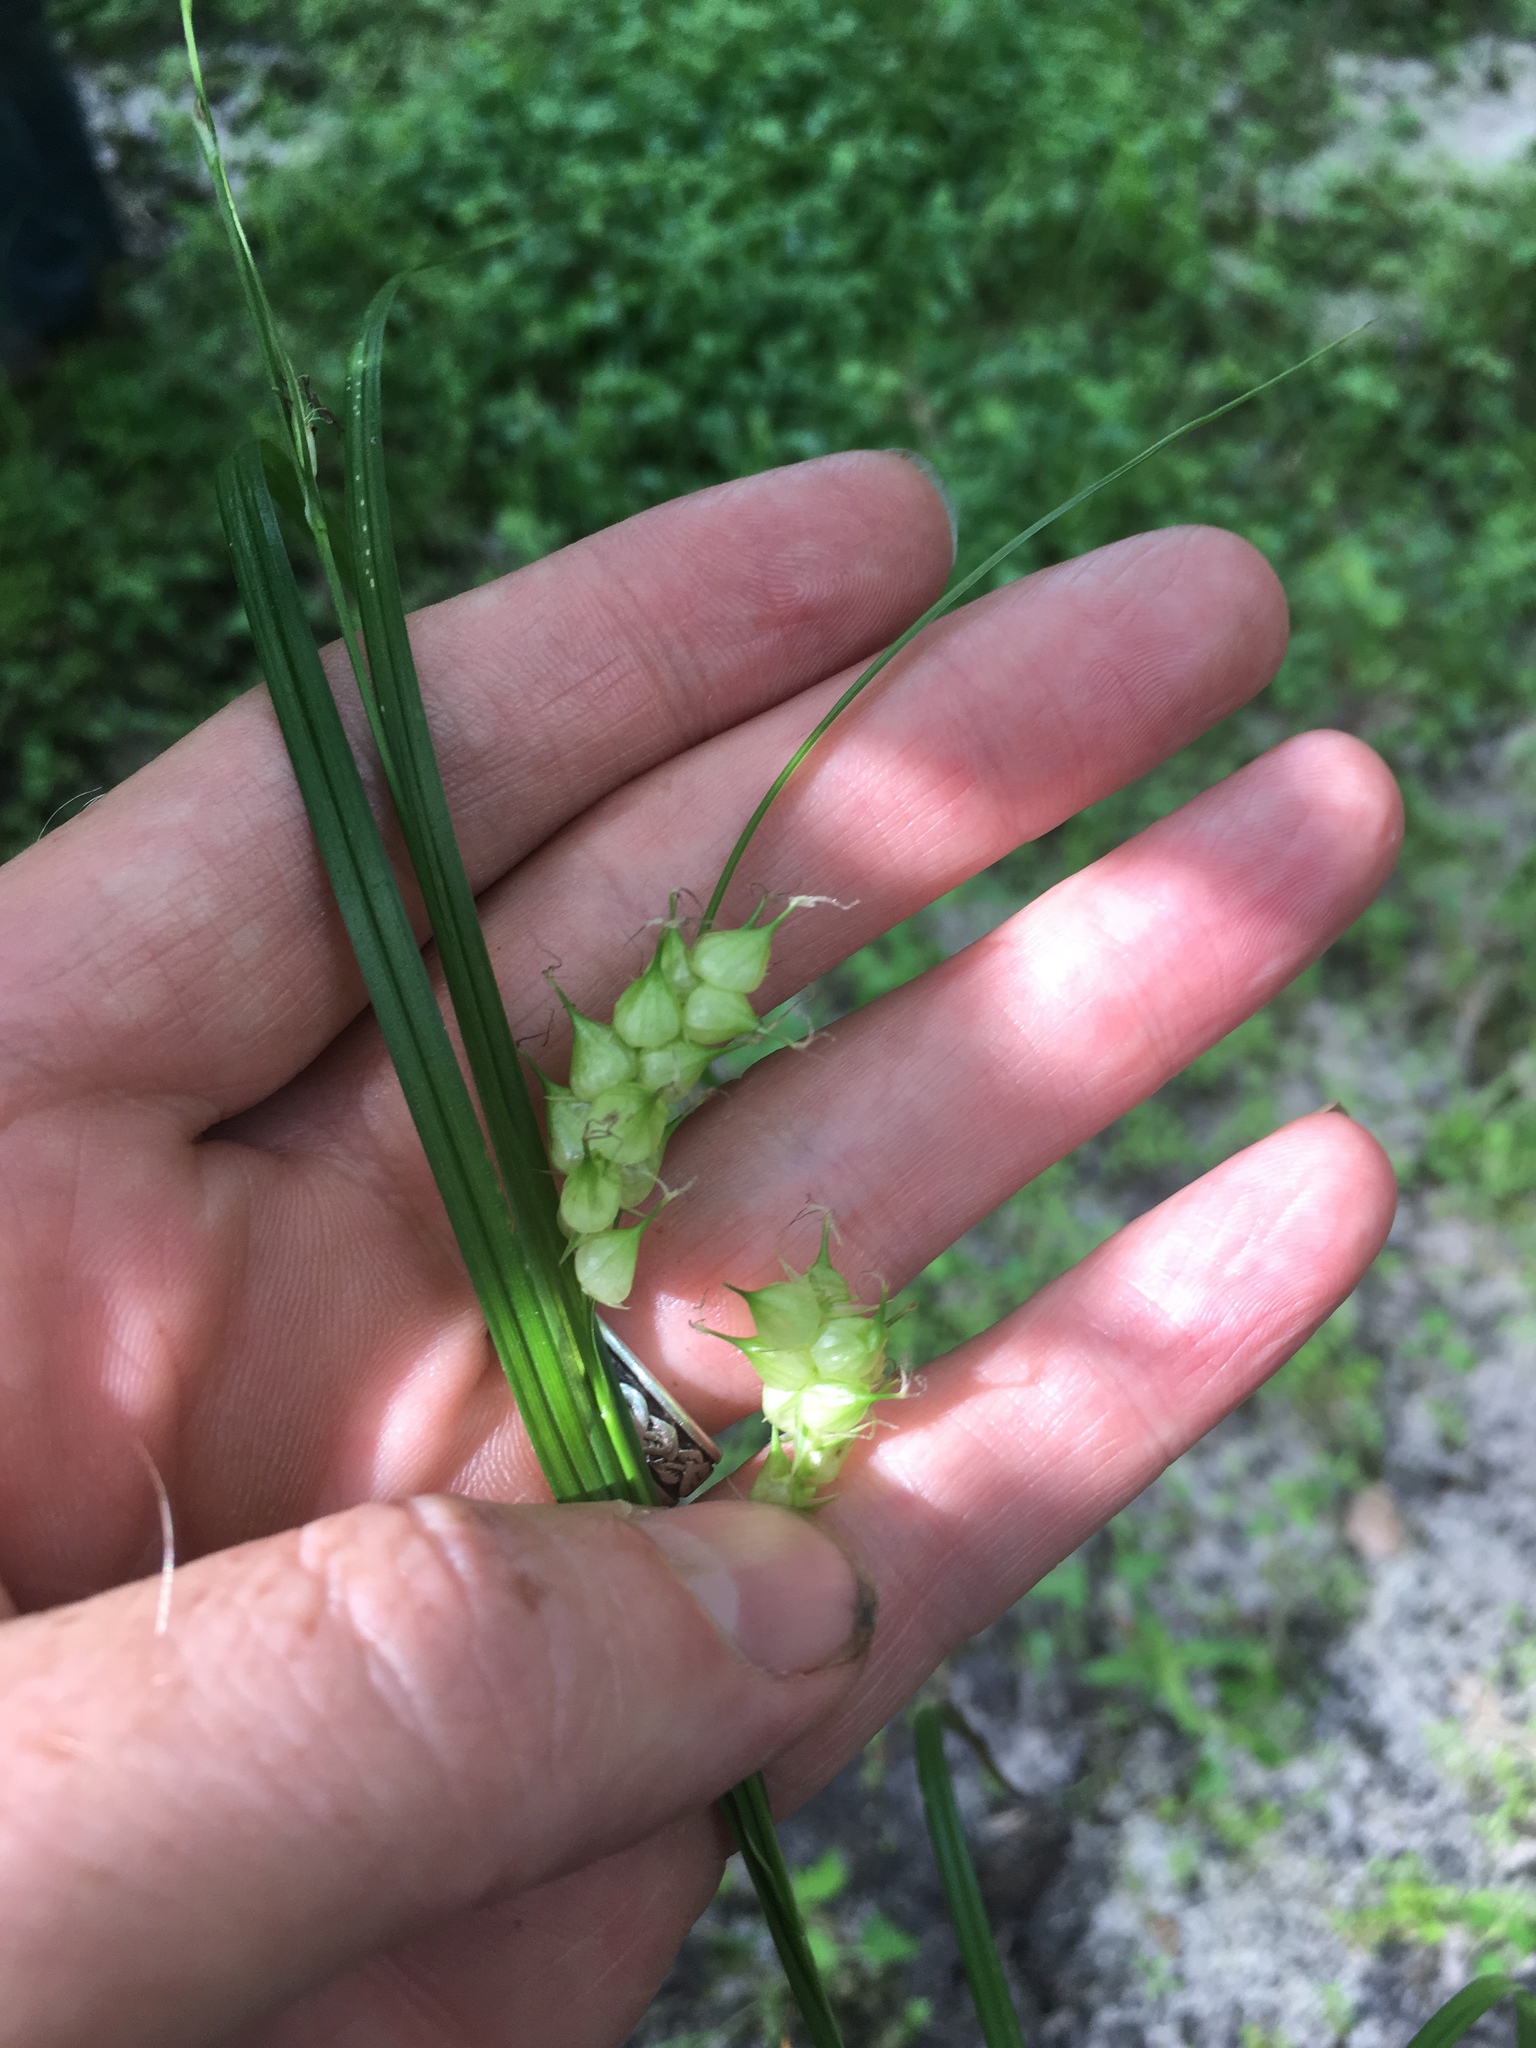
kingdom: Plantae
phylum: Tracheophyta
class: Liliopsida
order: Poales
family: Cyperaceae
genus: Carex
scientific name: Carex tuckermanii
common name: Tuckerman's sedge
